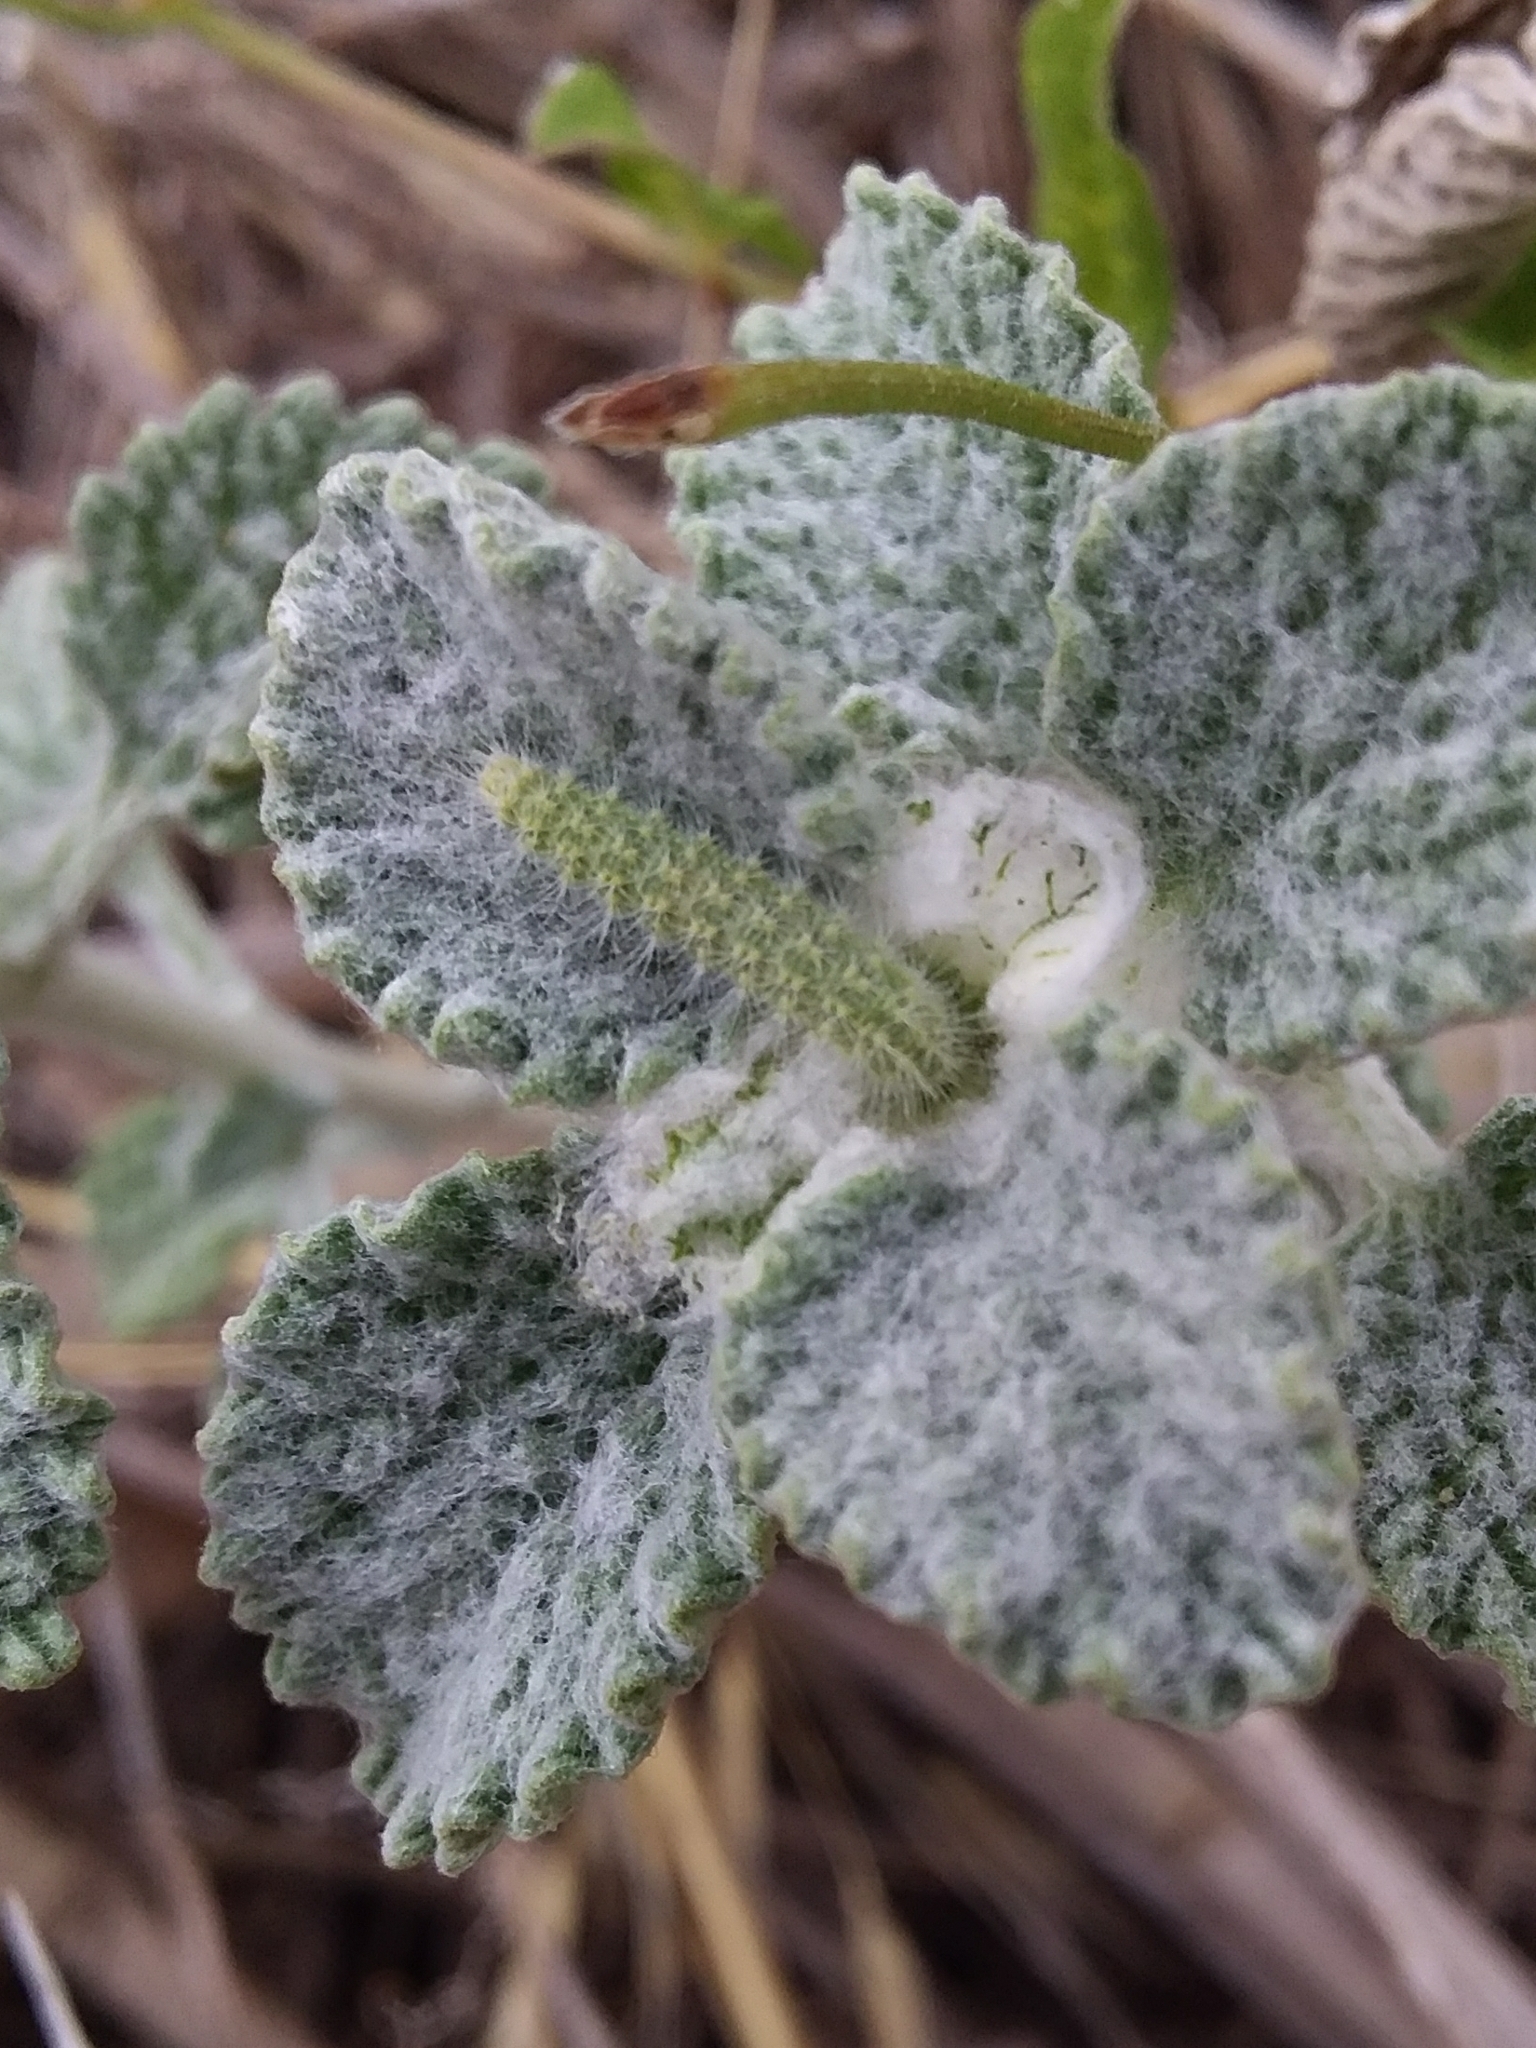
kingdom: Animalia
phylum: Arthropoda
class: Insecta
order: Lepidoptera
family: Pterophoridae
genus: Wheeleria
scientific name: Wheeleria spilodactylus
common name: Horehound plume
